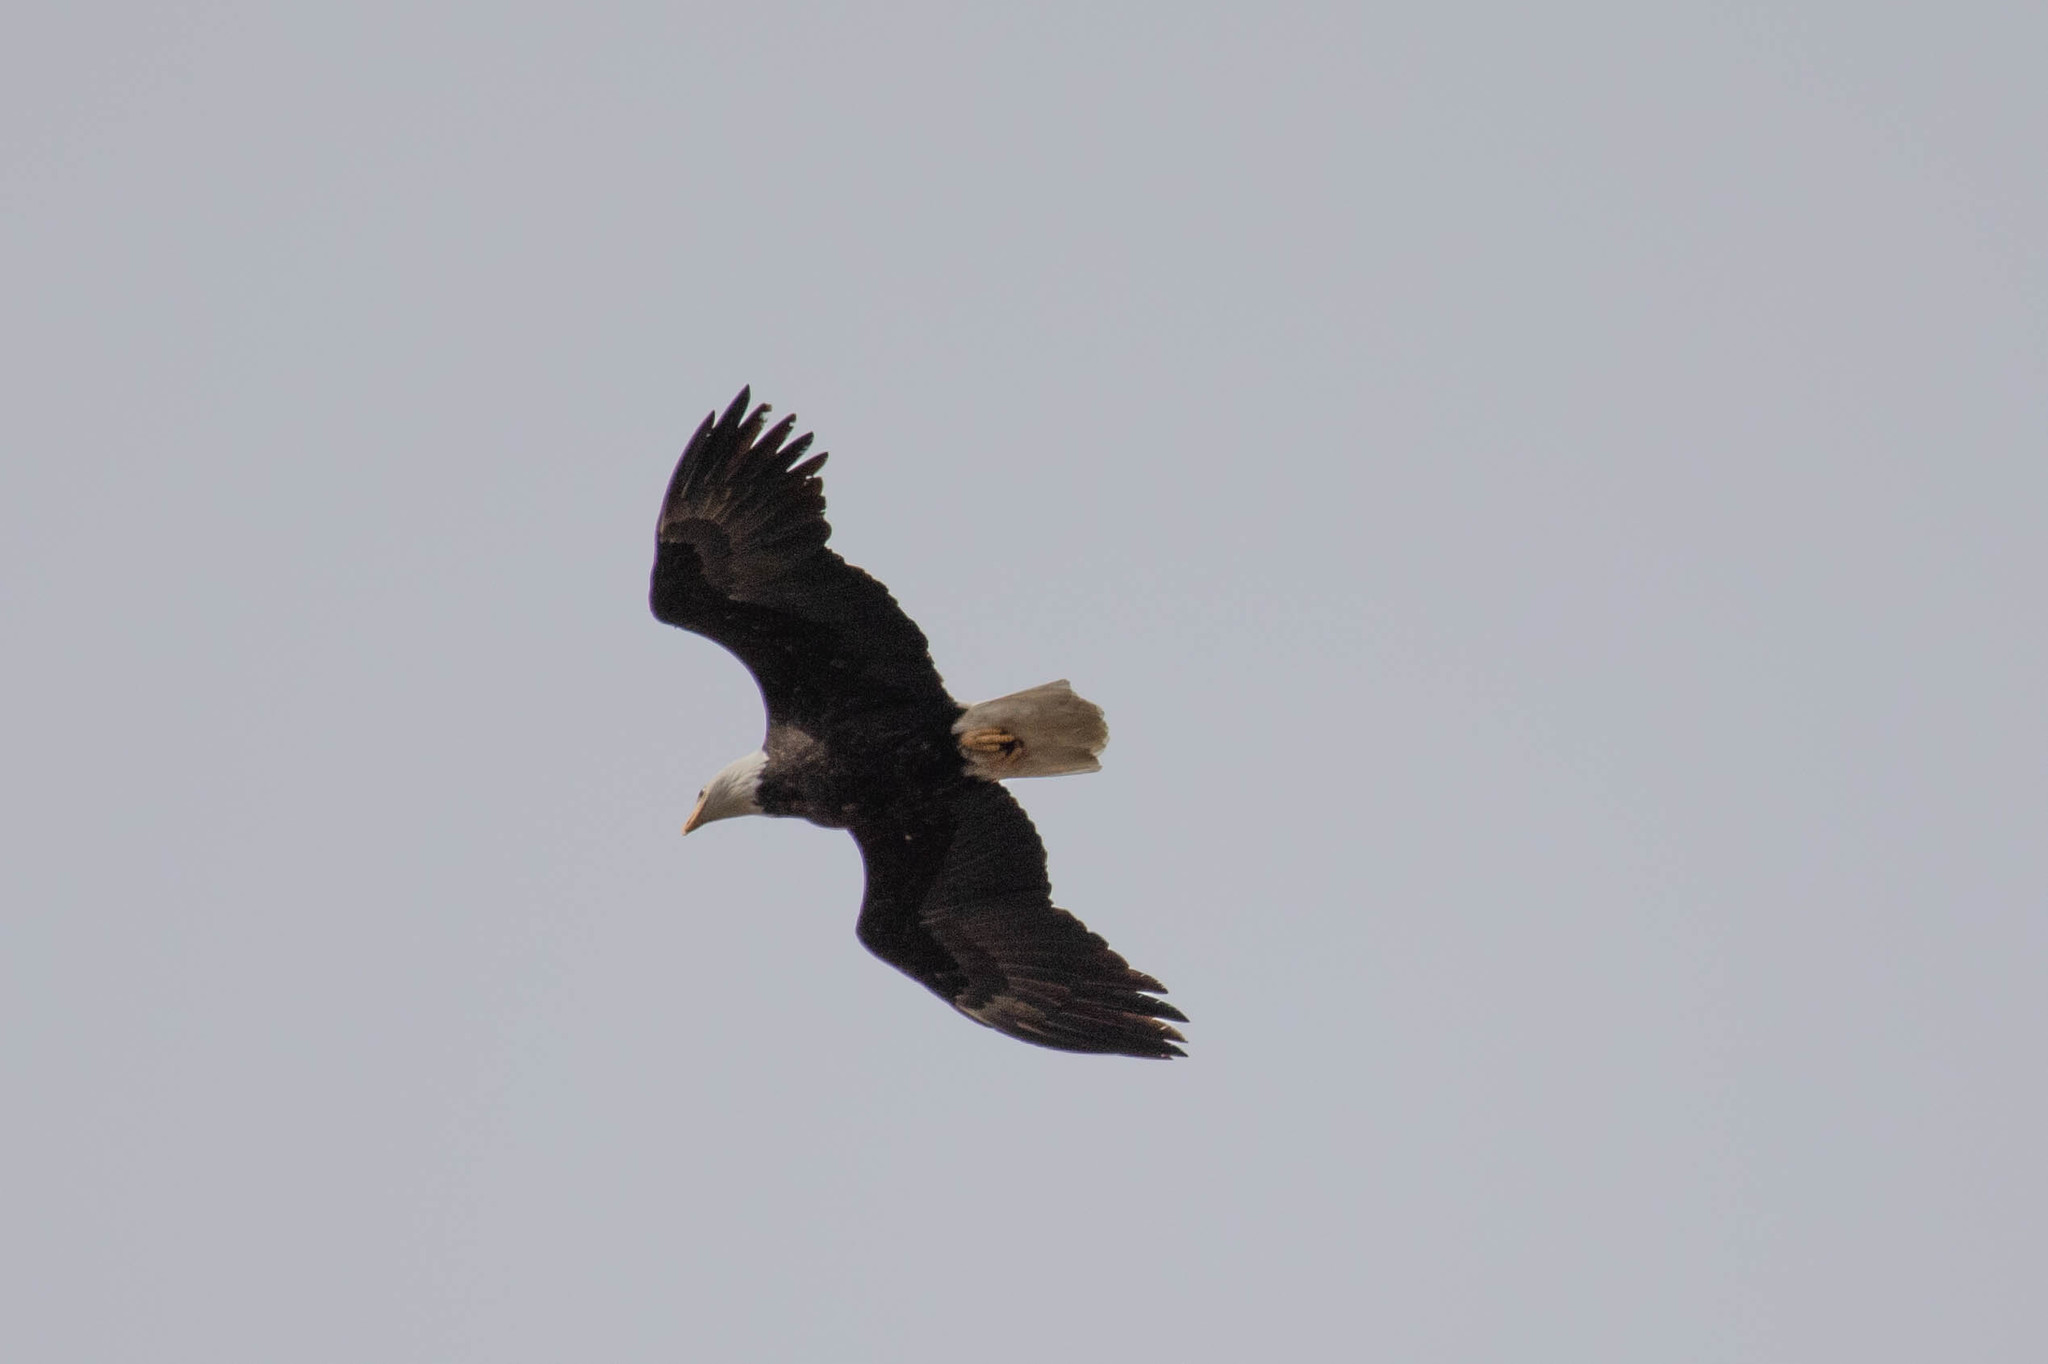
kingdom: Animalia
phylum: Chordata
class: Aves
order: Accipitriformes
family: Accipitridae
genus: Haliaeetus
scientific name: Haliaeetus leucocephalus
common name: Bald eagle
